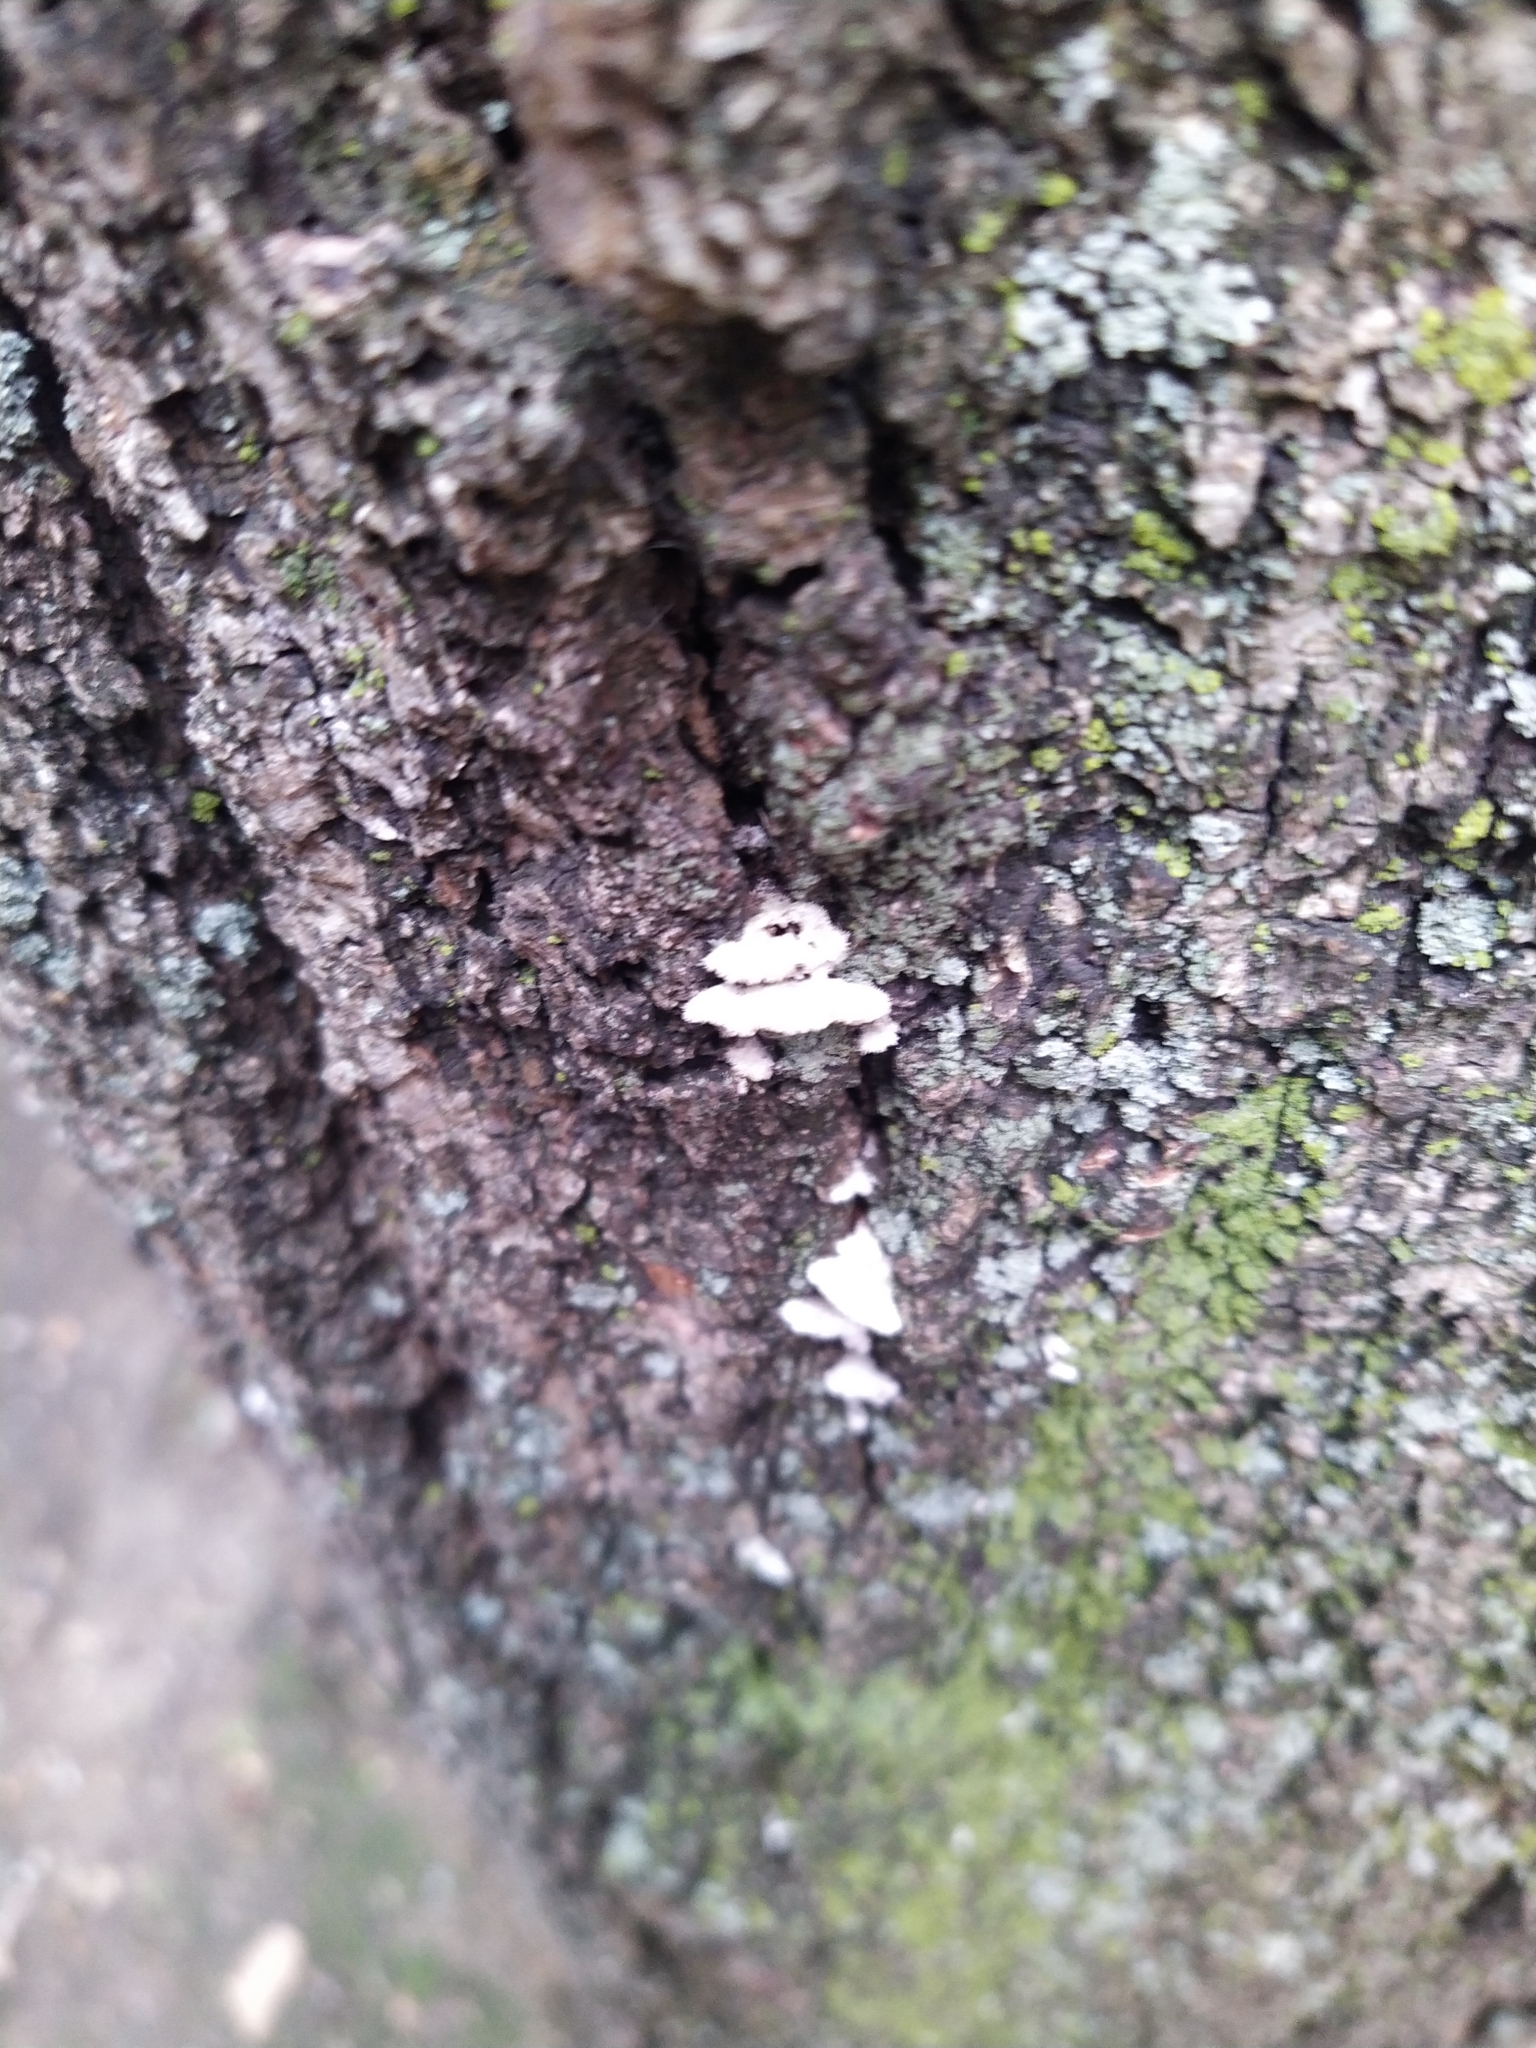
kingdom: Fungi
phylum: Basidiomycota
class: Agaricomycetes
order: Agaricales
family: Schizophyllaceae
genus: Schizophyllum
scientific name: Schizophyllum commune
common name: Common porecrust
